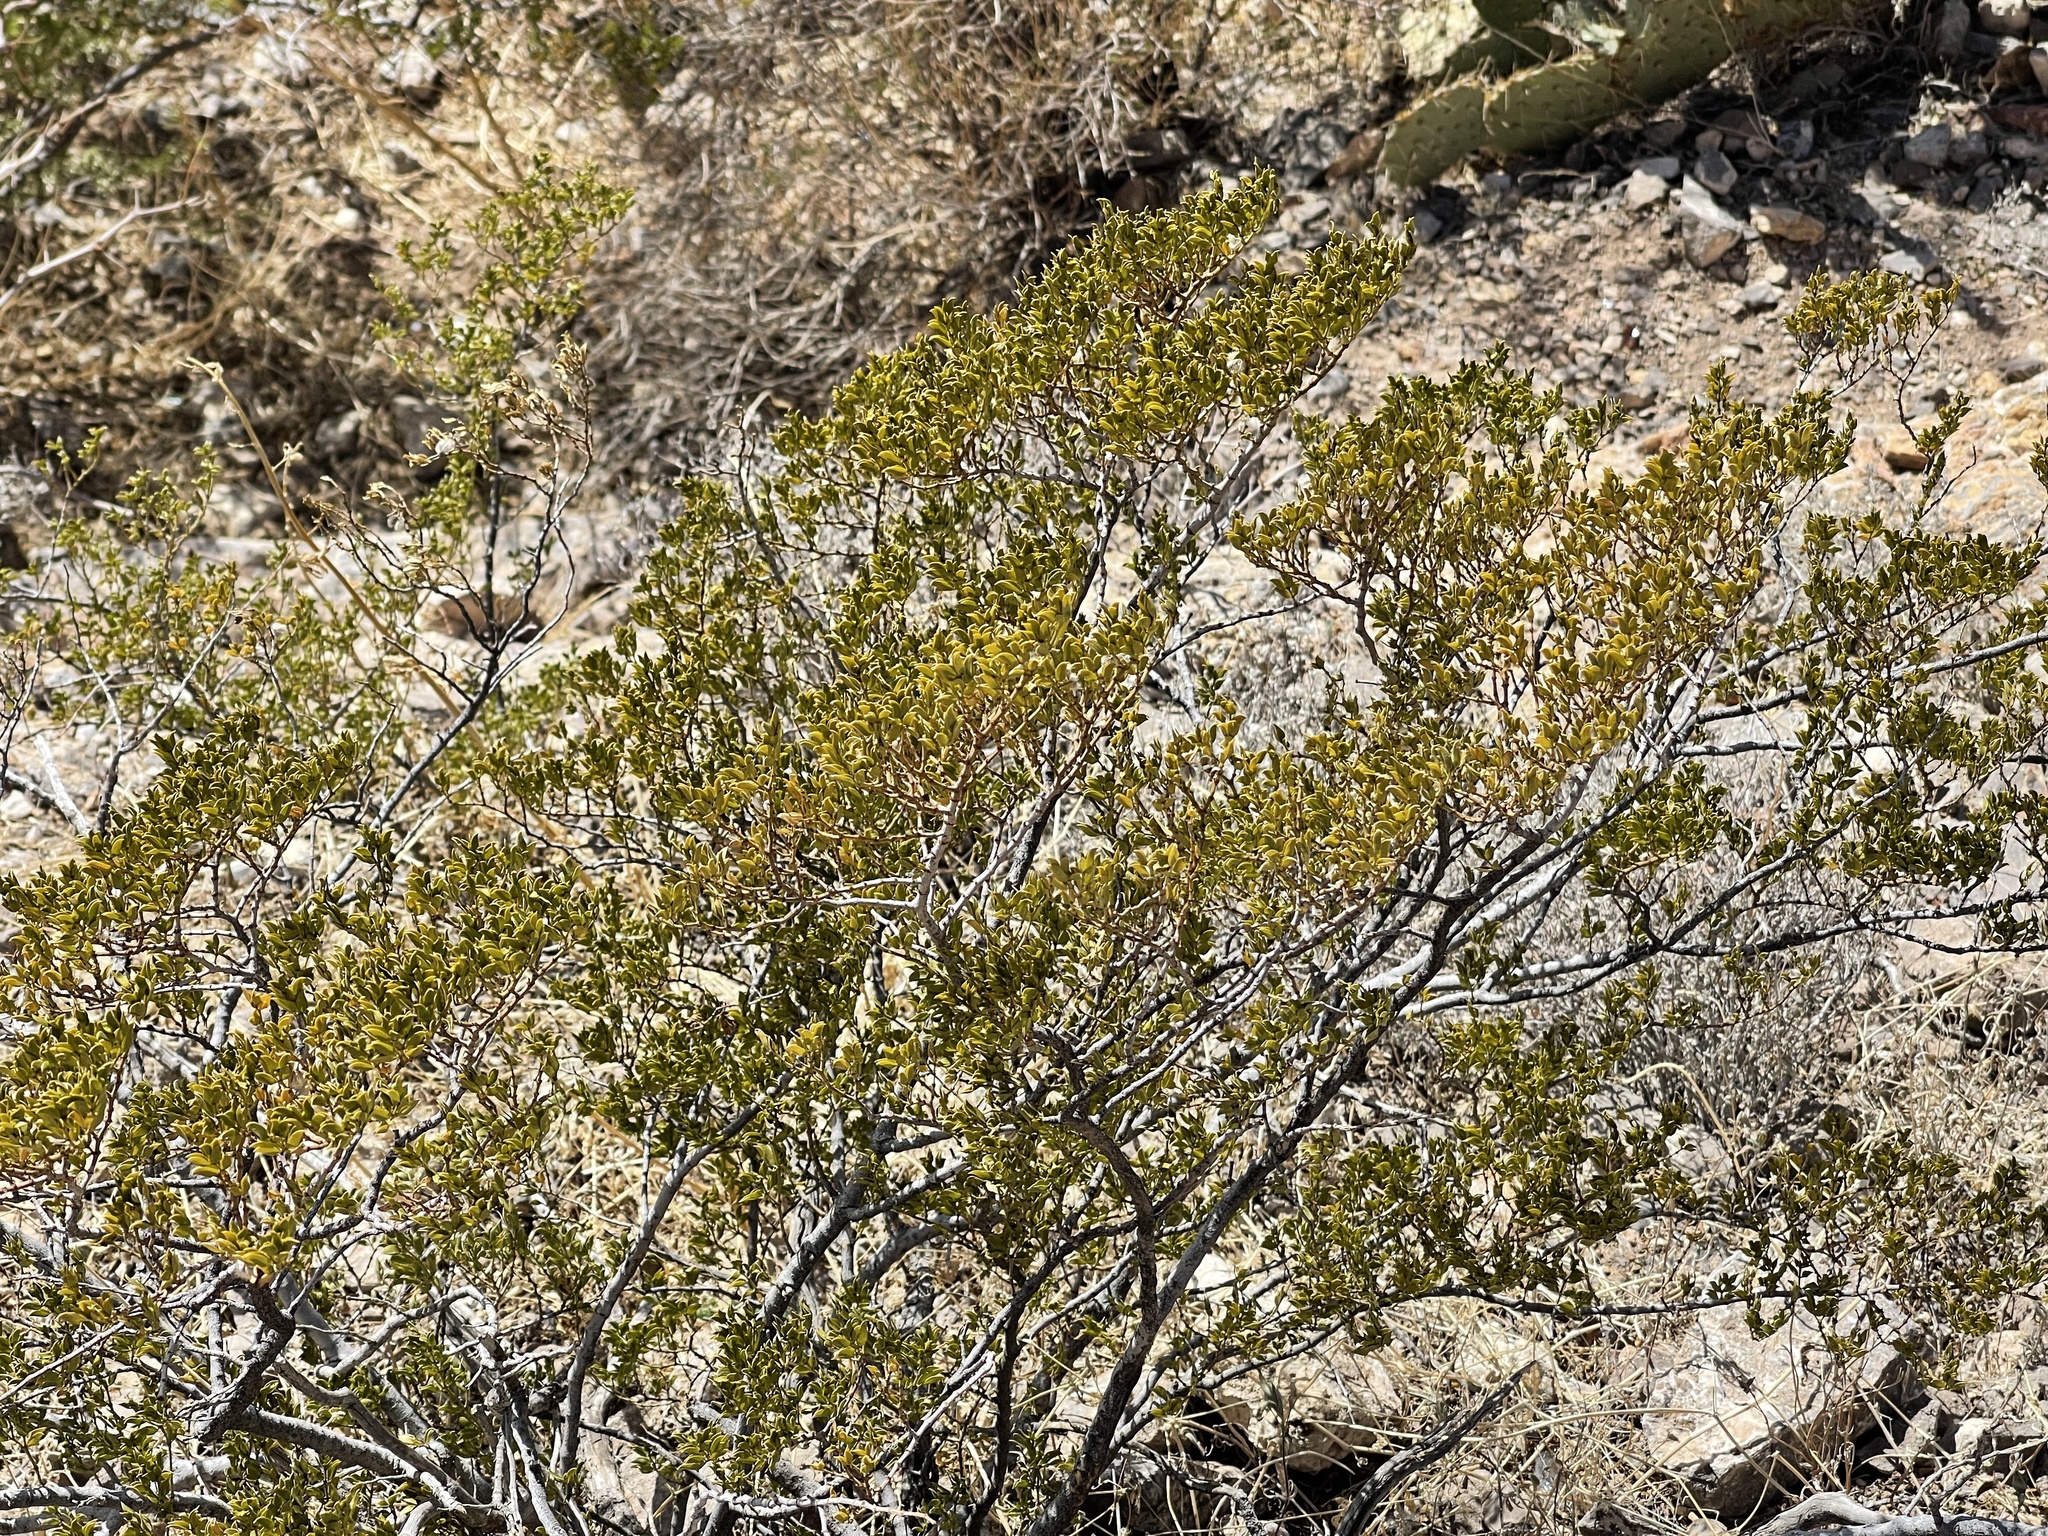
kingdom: Plantae
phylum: Tracheophyta
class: Magnoliopsida
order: Zygophyllales
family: Zygophyllaceae
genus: Larrea
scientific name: Larrea tridentata
